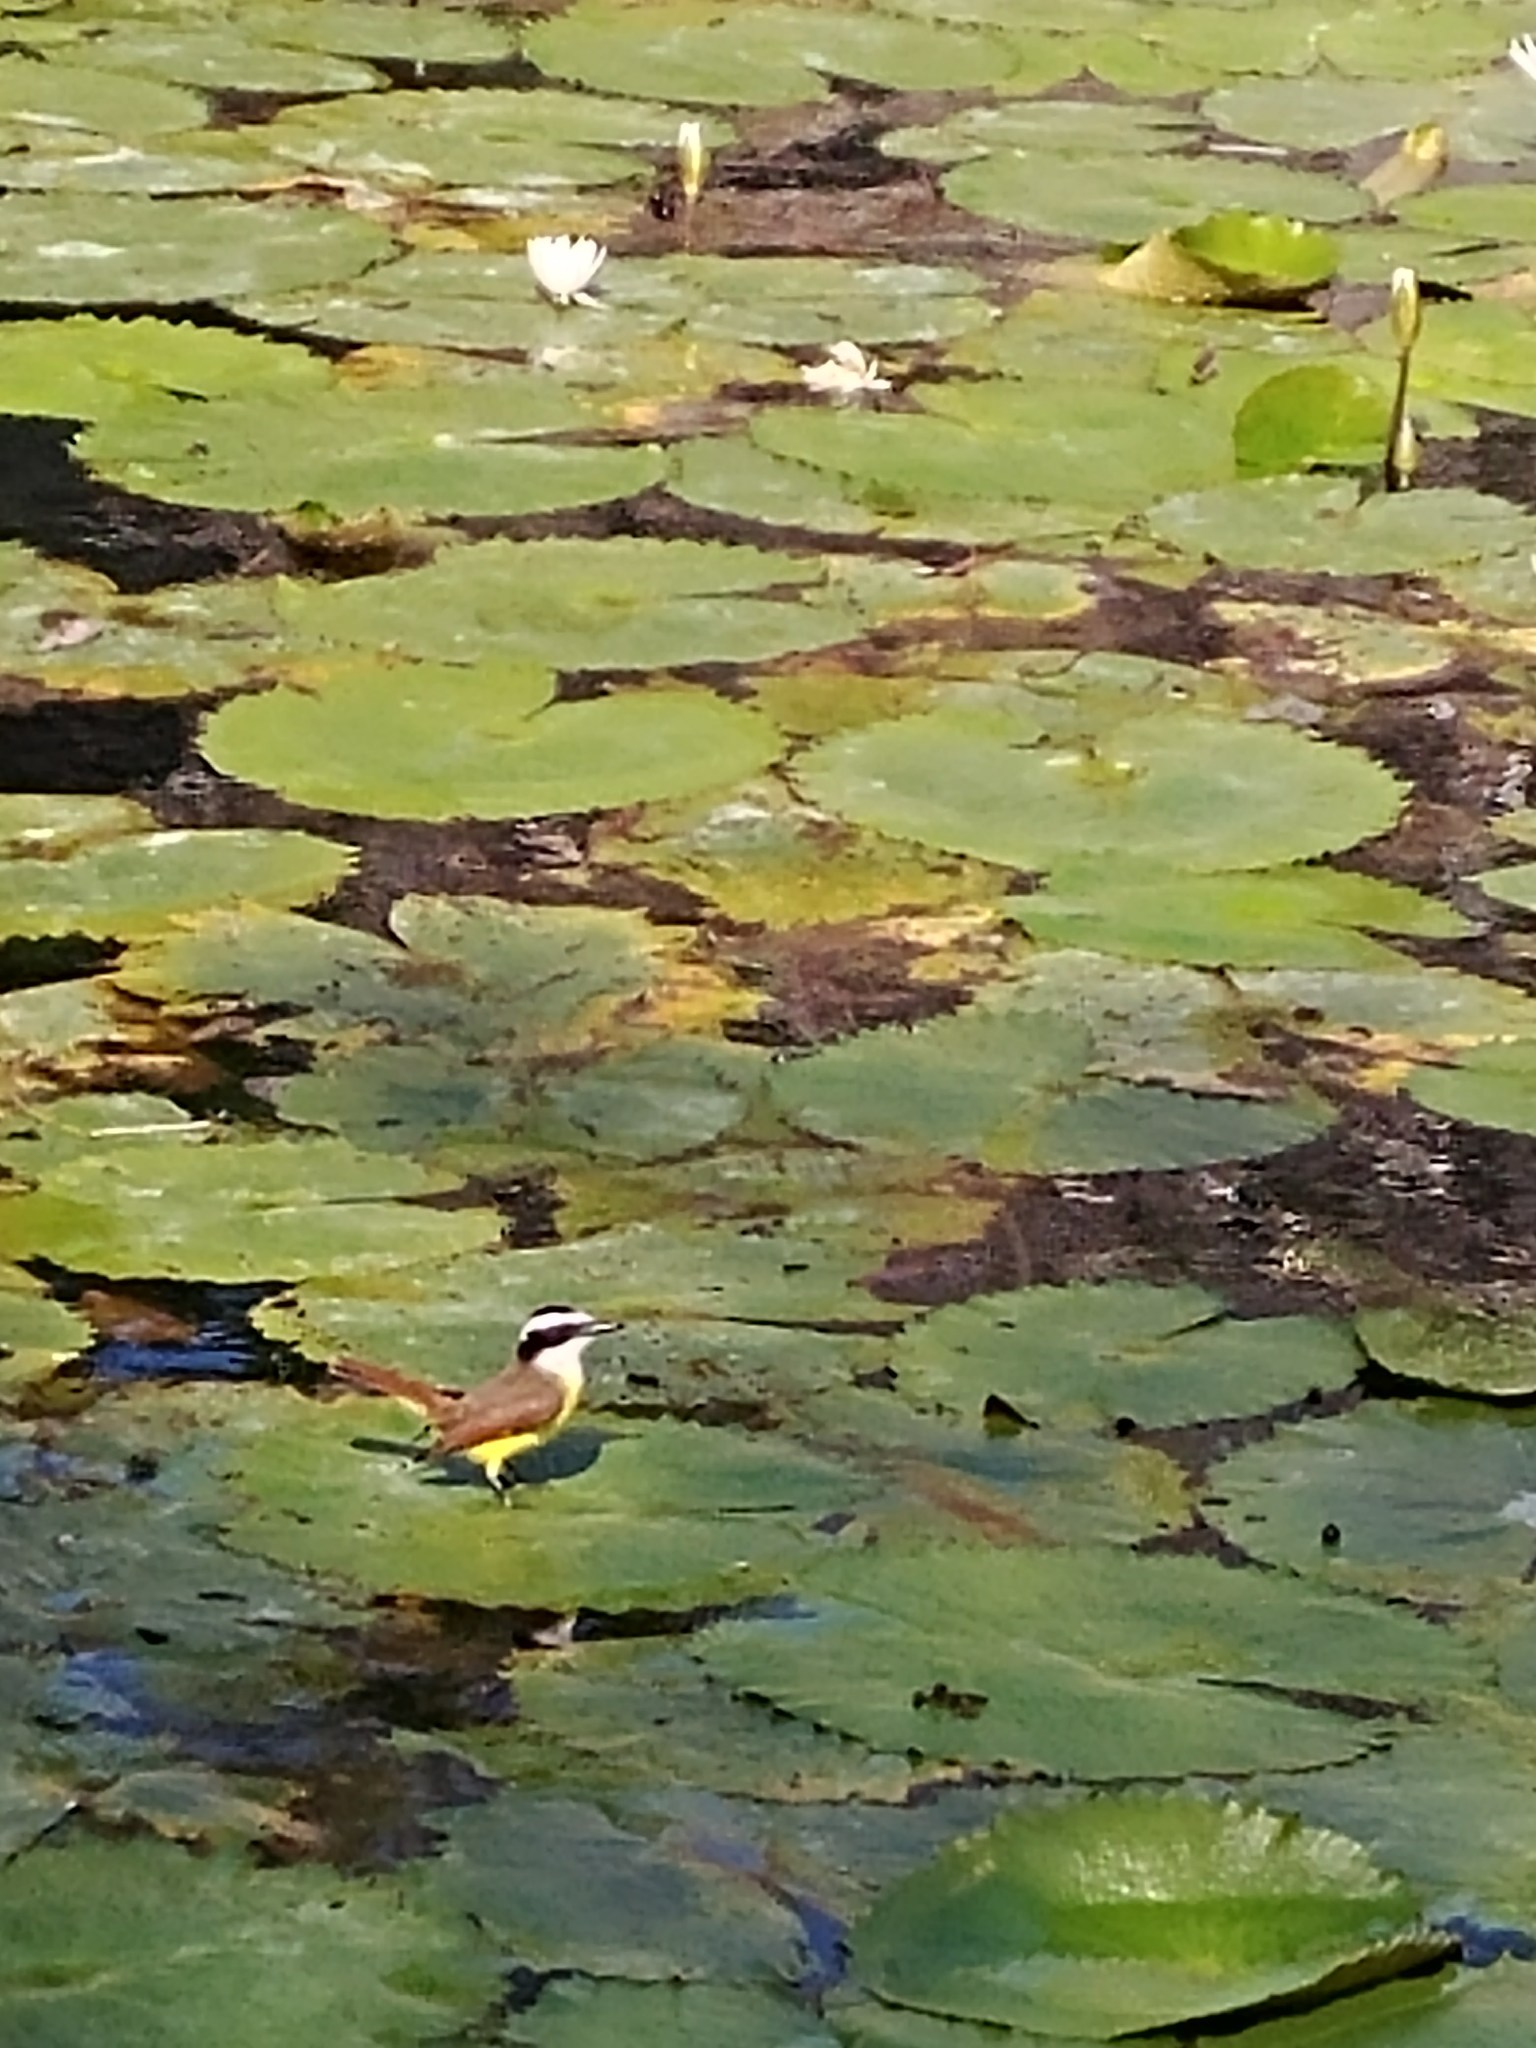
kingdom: Animalia
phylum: Chordata
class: Aves
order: Passeriformes
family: Tyrannidae
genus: Pitangus
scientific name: Pitangus sulphuratus
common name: Great kiskadee
